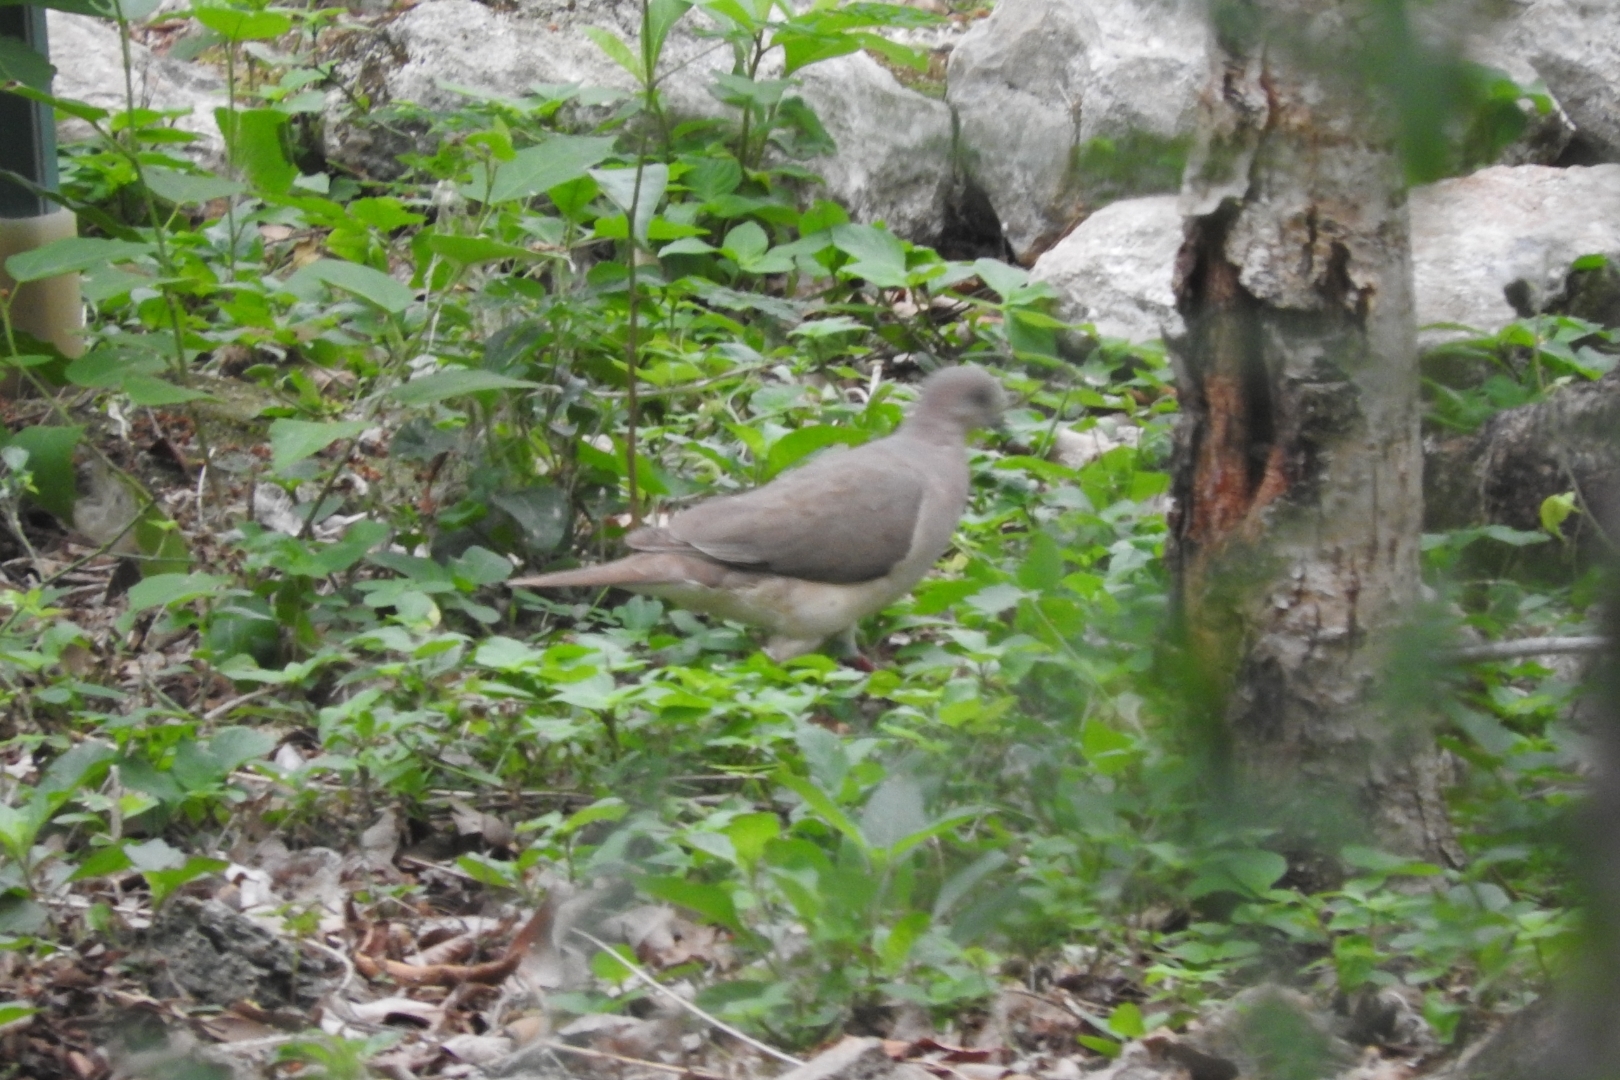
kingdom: Animalia
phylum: Chordata
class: Aves
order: Columbiformes
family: Columbidae
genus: Leptotila
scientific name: Leptotila verreauxi
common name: White-tipped dove
